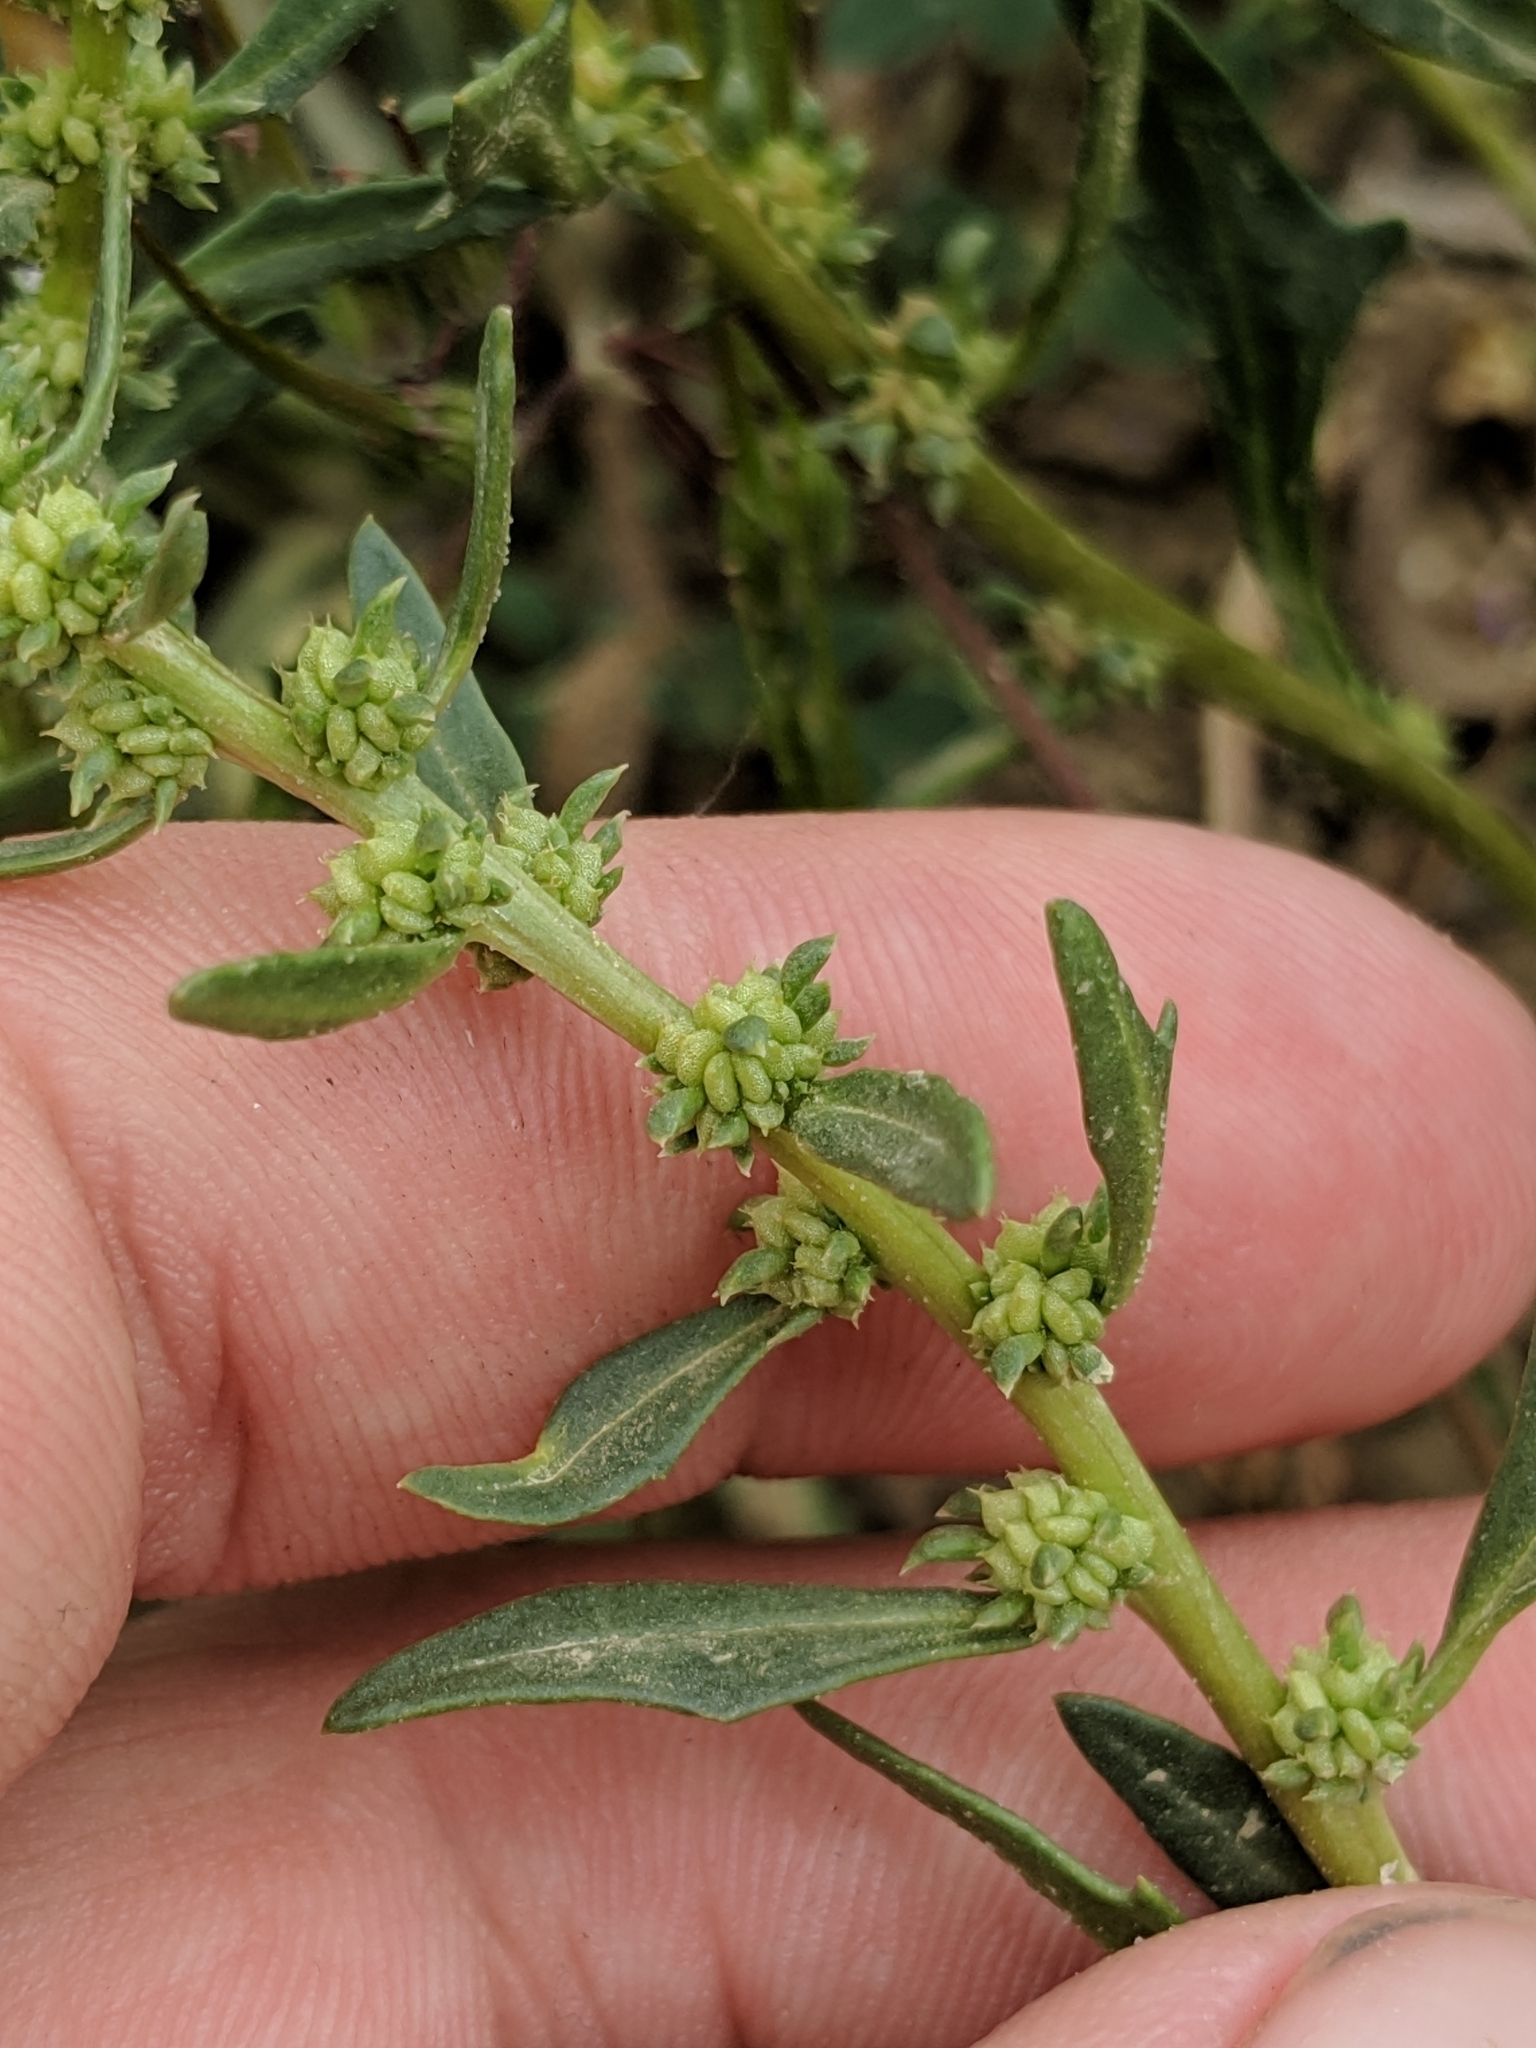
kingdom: Plantae
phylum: Tracheophyta
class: Magnoliopsida
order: Caryophyllales
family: Amaranthaceae
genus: Blitum
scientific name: Blitum nuttallianum
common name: Poverty-weed
